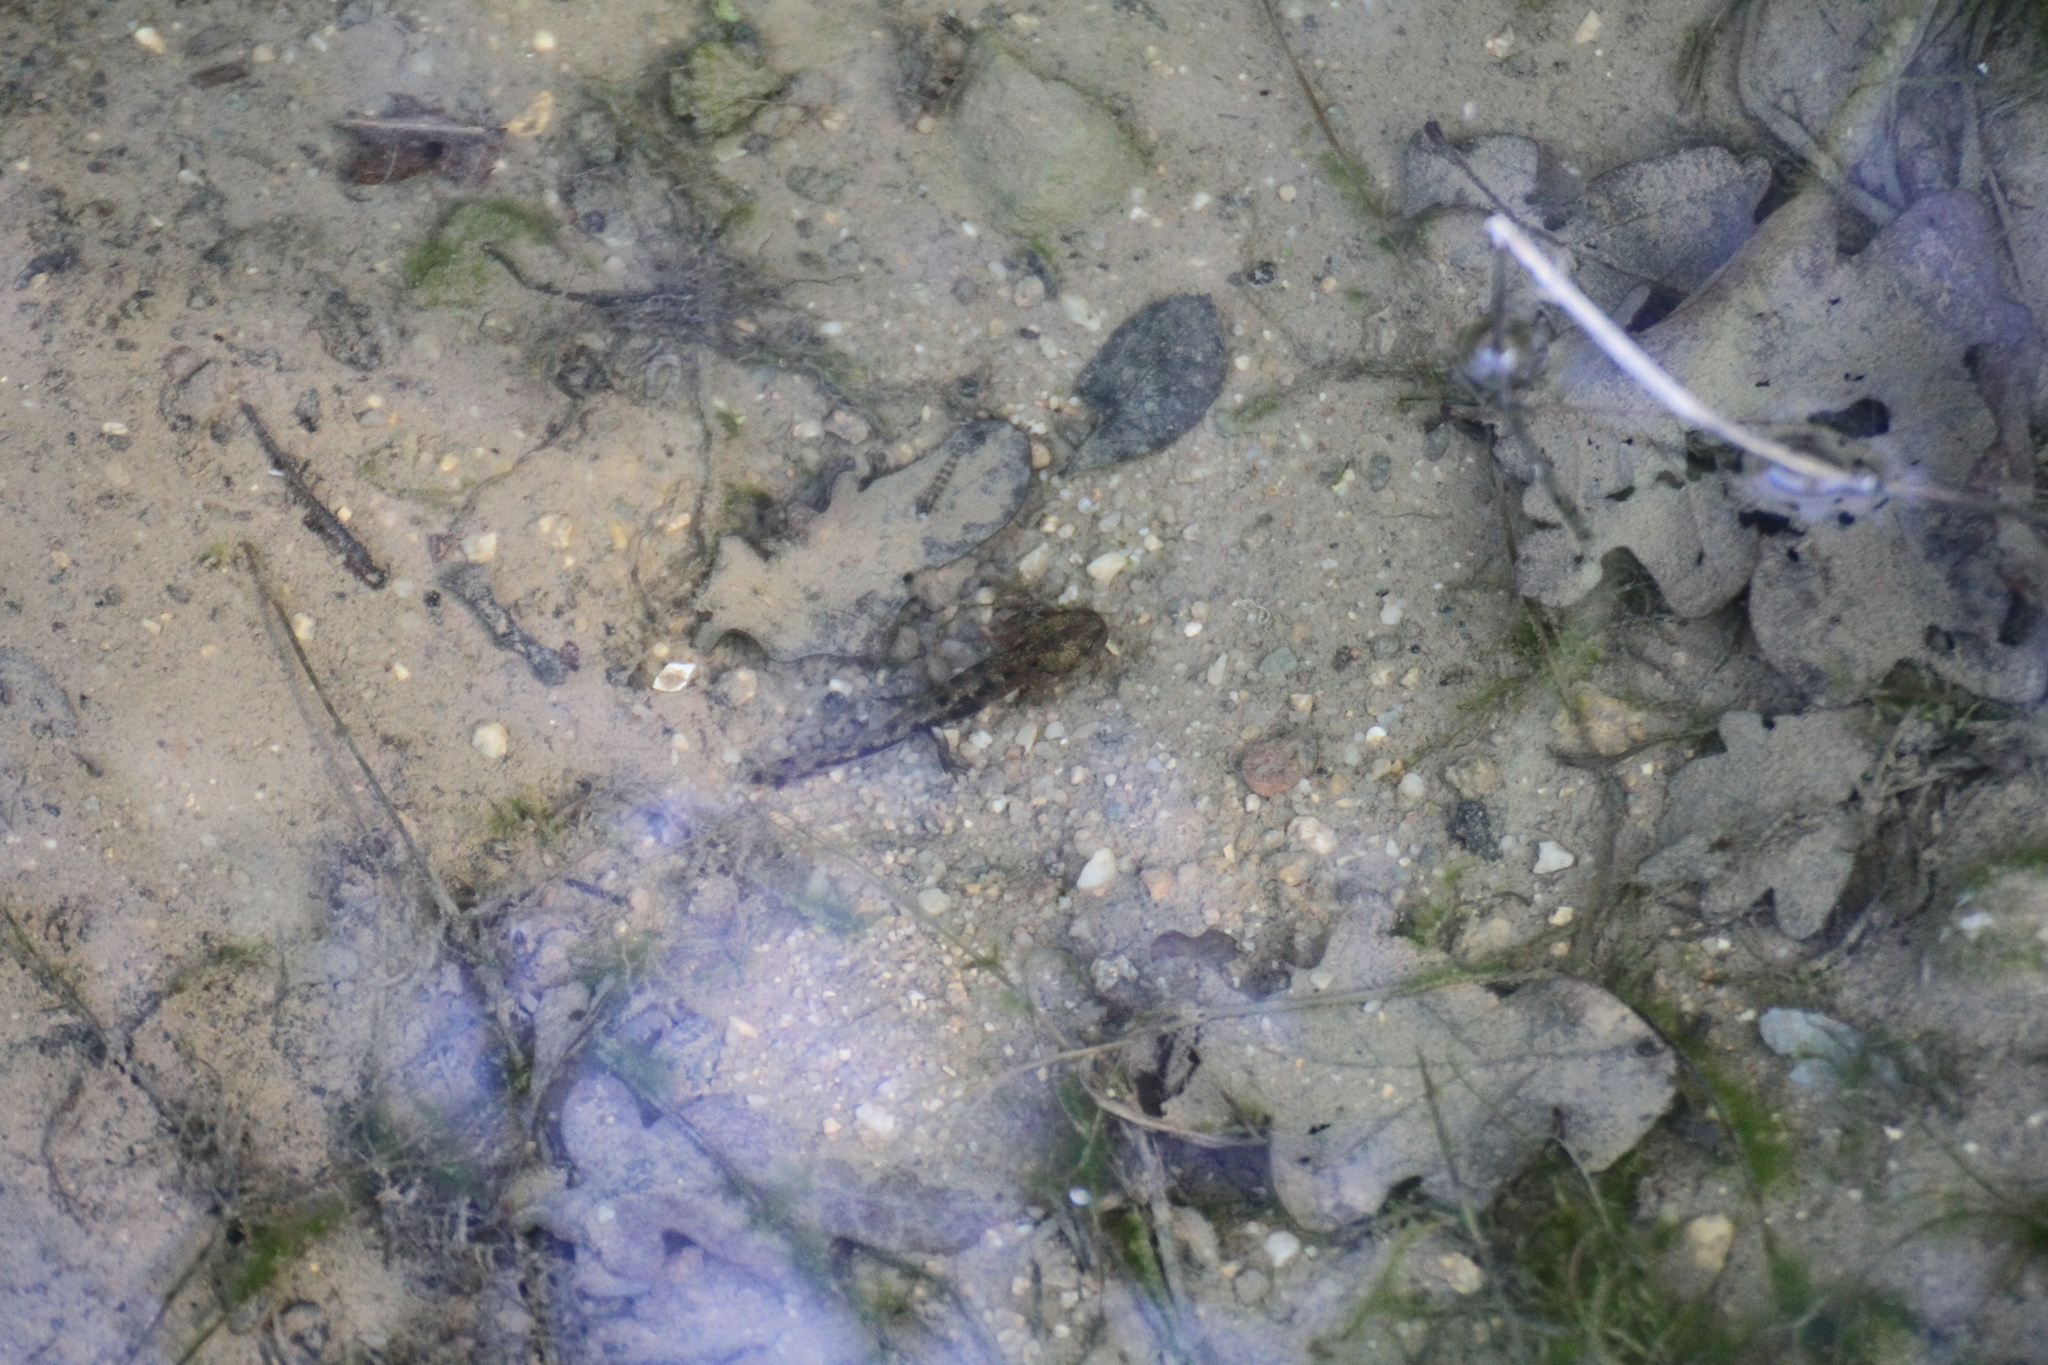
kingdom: Animalia
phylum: Chordata
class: Amphibia
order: Caudata
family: Salamandridae
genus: Salamandra
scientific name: Salamandra salamandra
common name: Fire salamander
